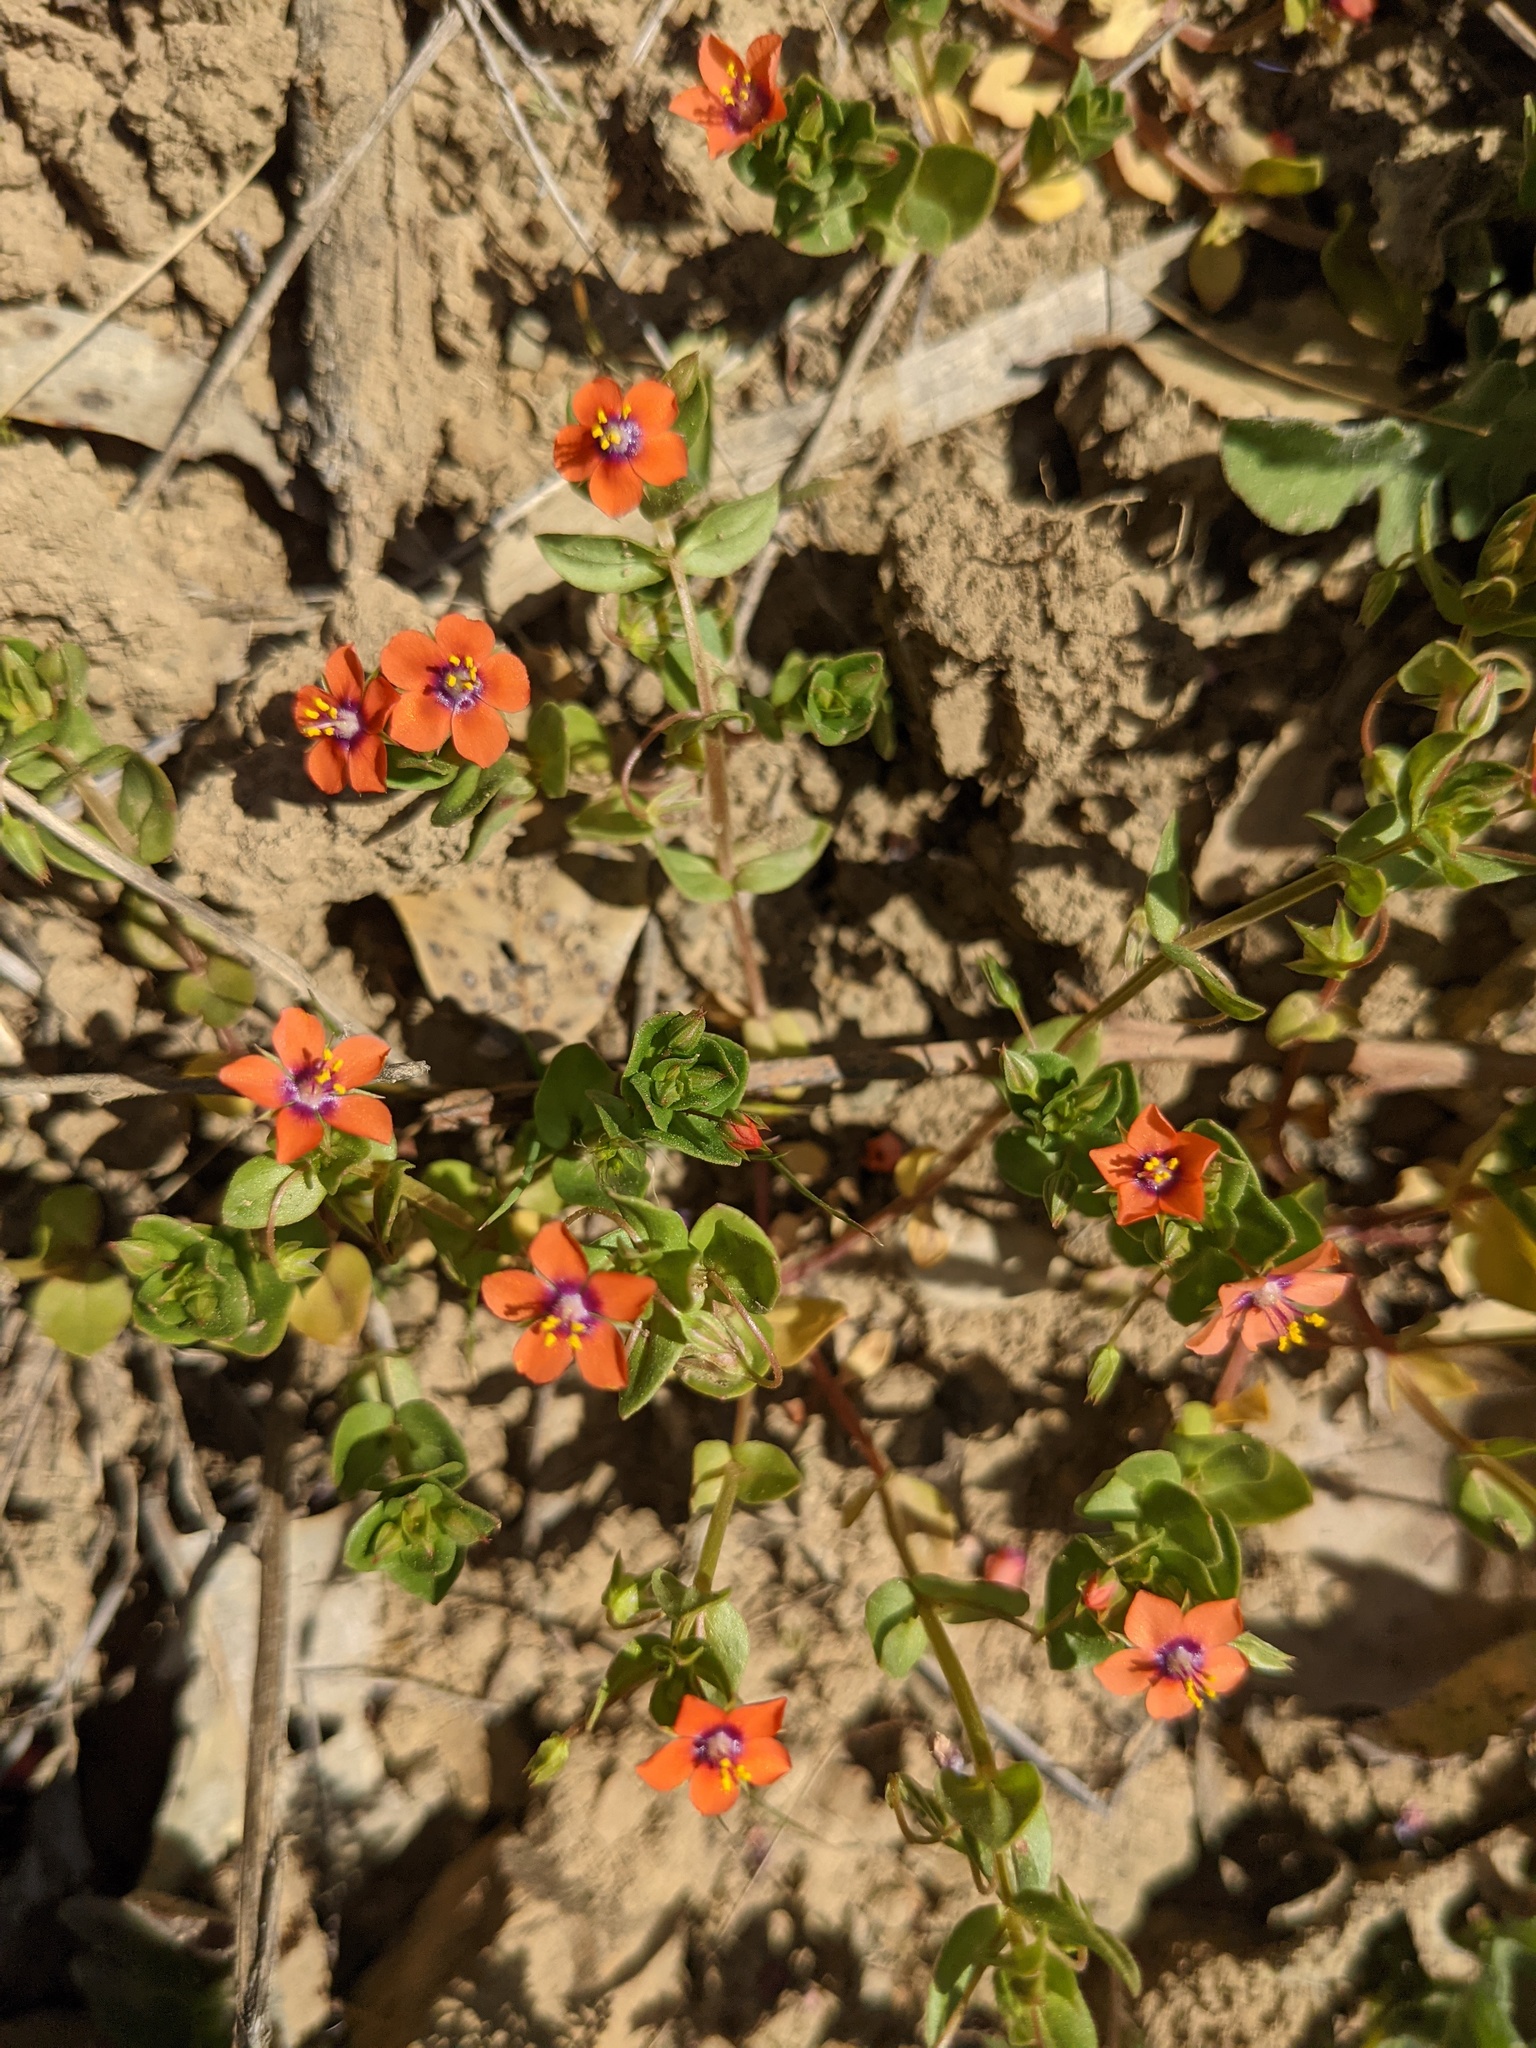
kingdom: Plantae
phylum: Tracheophyta
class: Magnoliopsida
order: Ericales
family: Primulaceae
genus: Lysimachia
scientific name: Lysimachia arvensis
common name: Scarlet pimpernel
